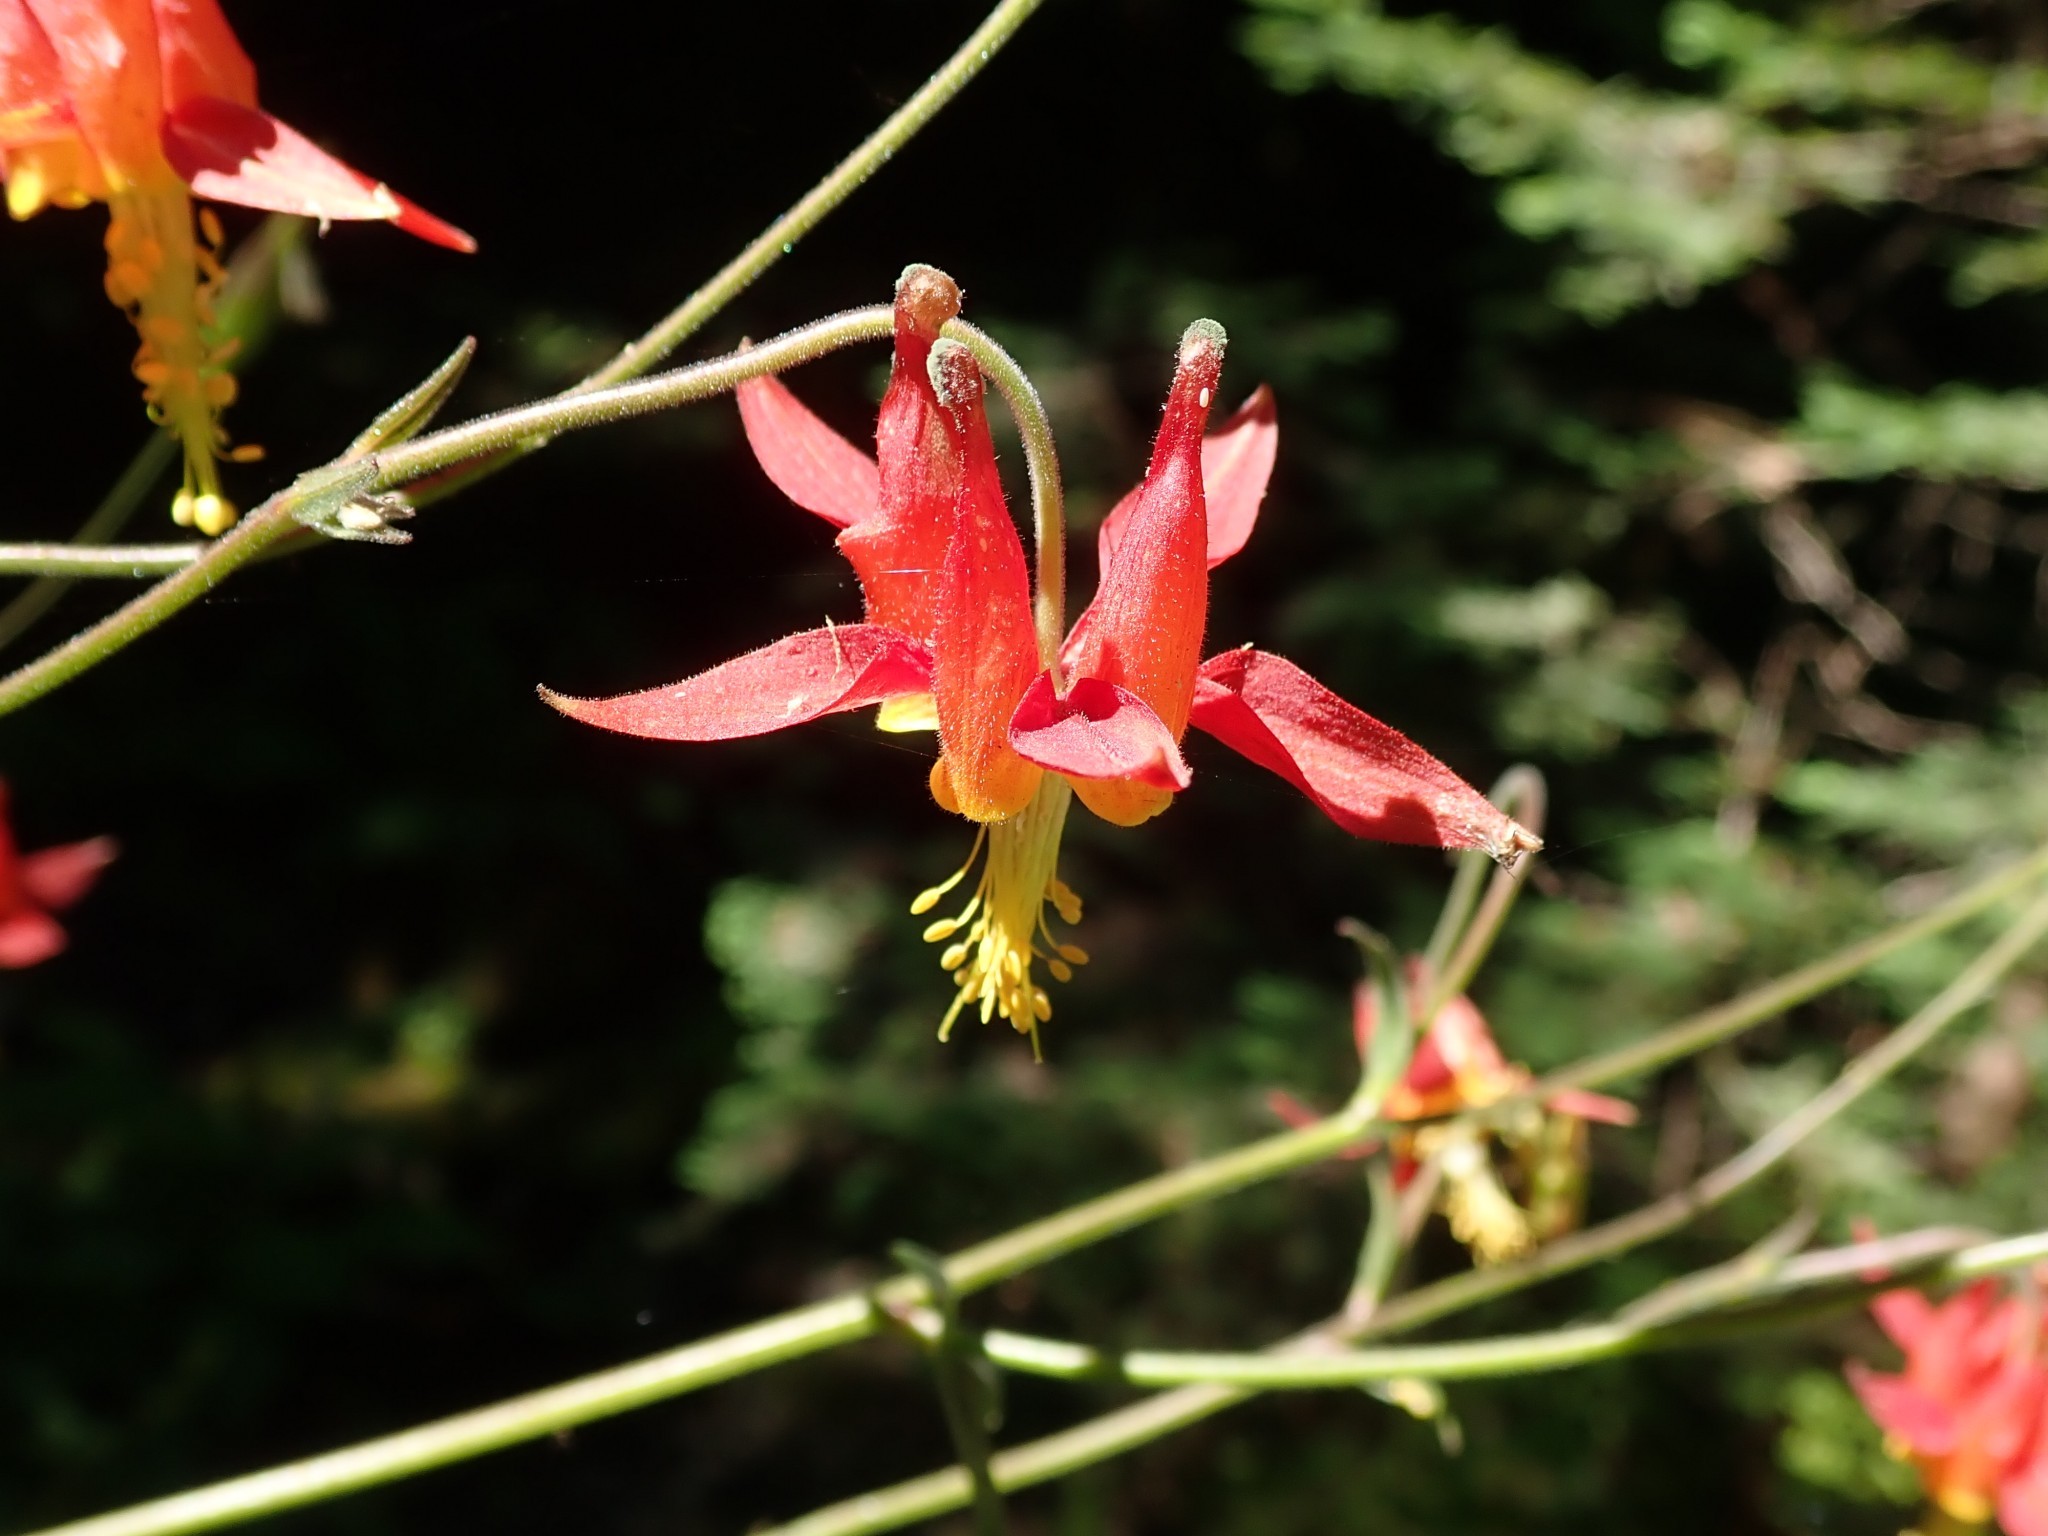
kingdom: Plantae
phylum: Tracheophyta
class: Magnoliopsida
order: Ranunculales
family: Ranunculaceae
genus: Aquilegia
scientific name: Aquilegia formosa
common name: Sitka columbine
